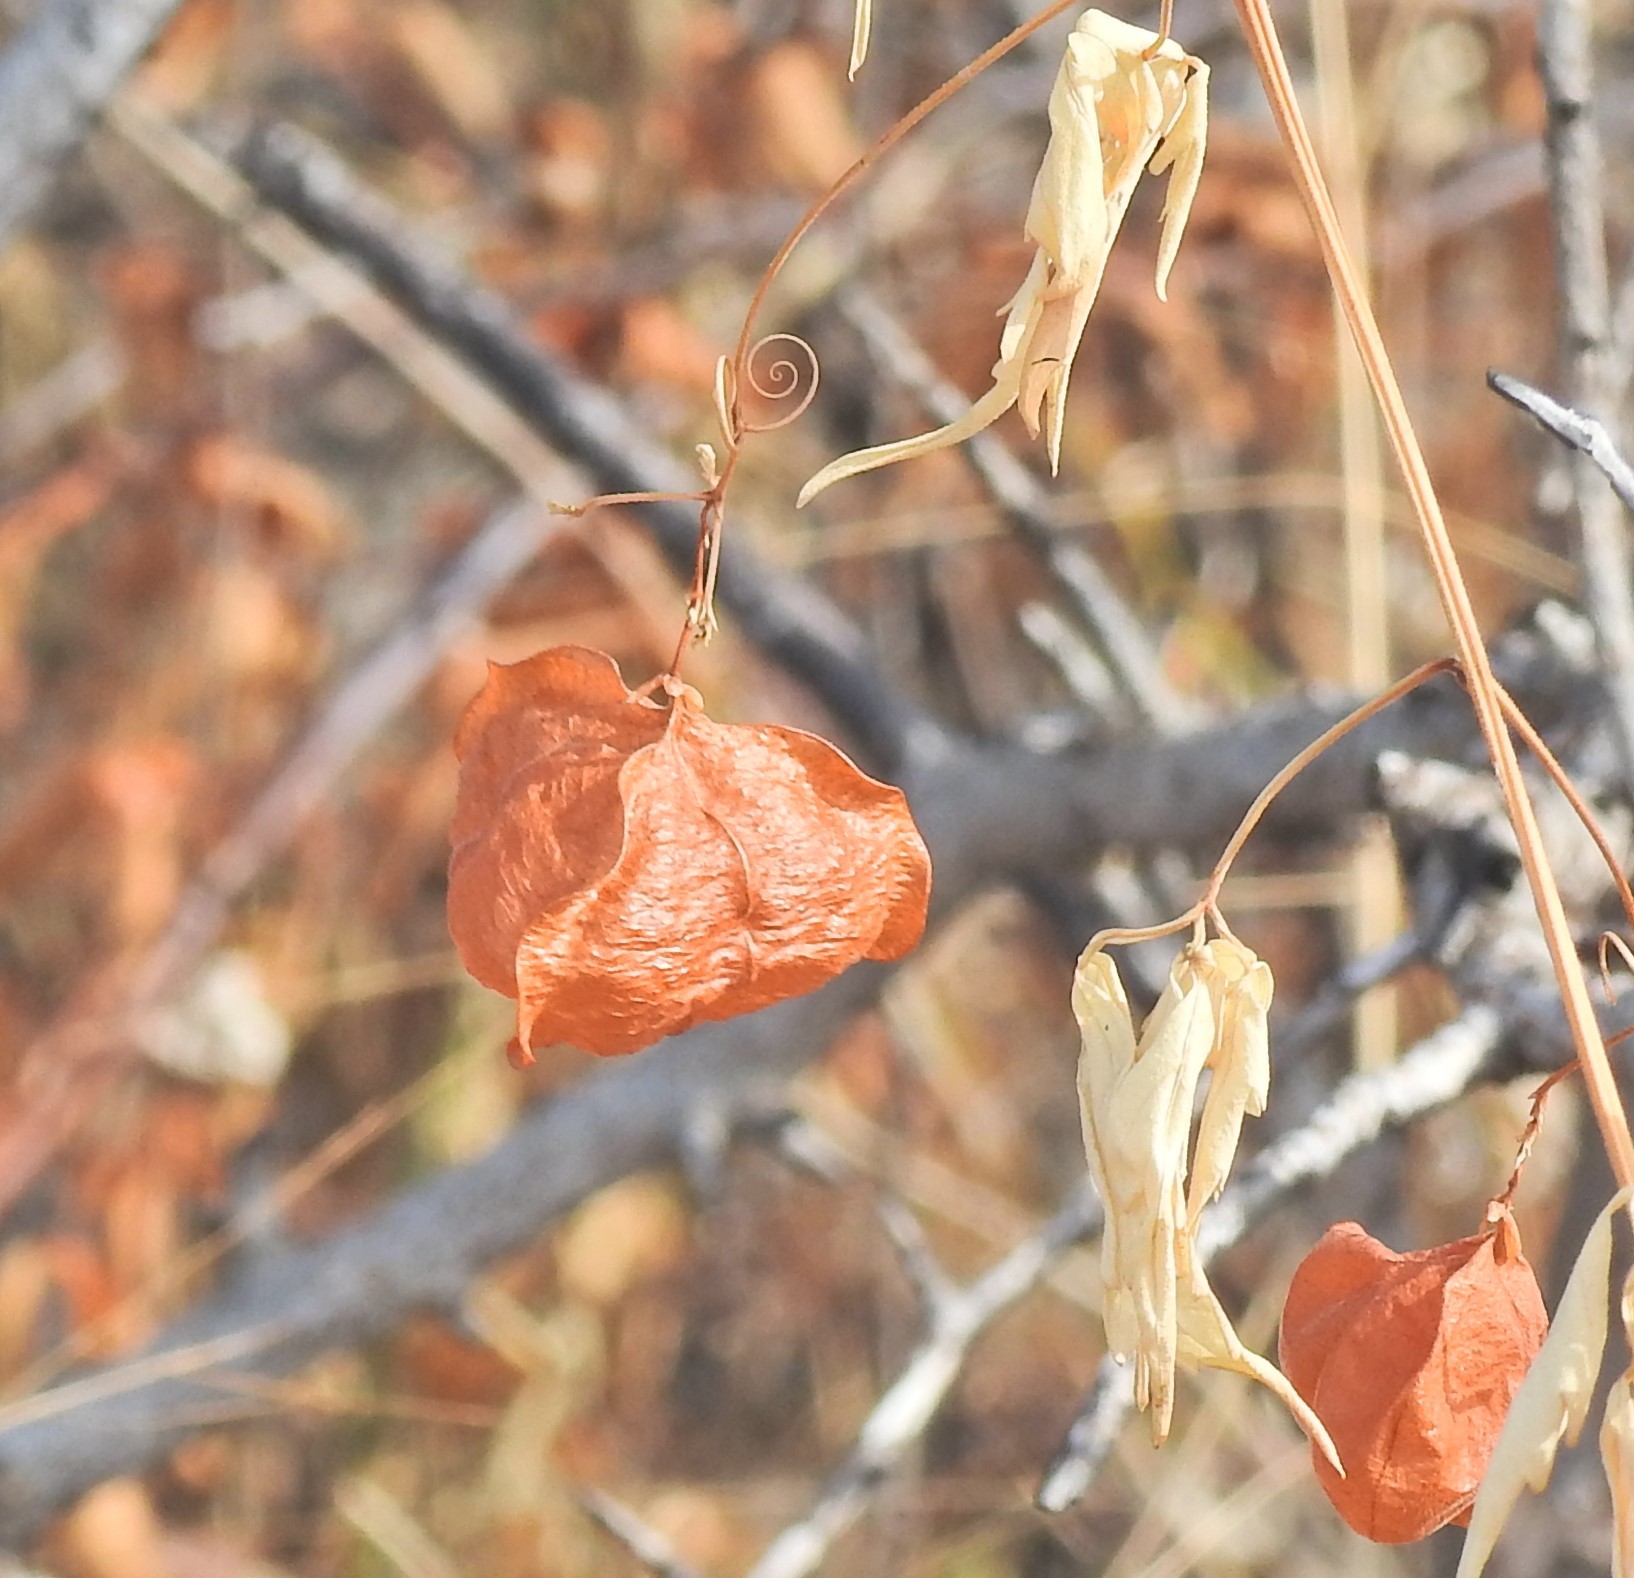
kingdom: Plantae
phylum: Tracheophyta
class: Magnoliopsida
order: Sapindales
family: Sapindaceae
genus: Cardiospermum
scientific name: Cardiospermum halicacabum
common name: Balloon vine
